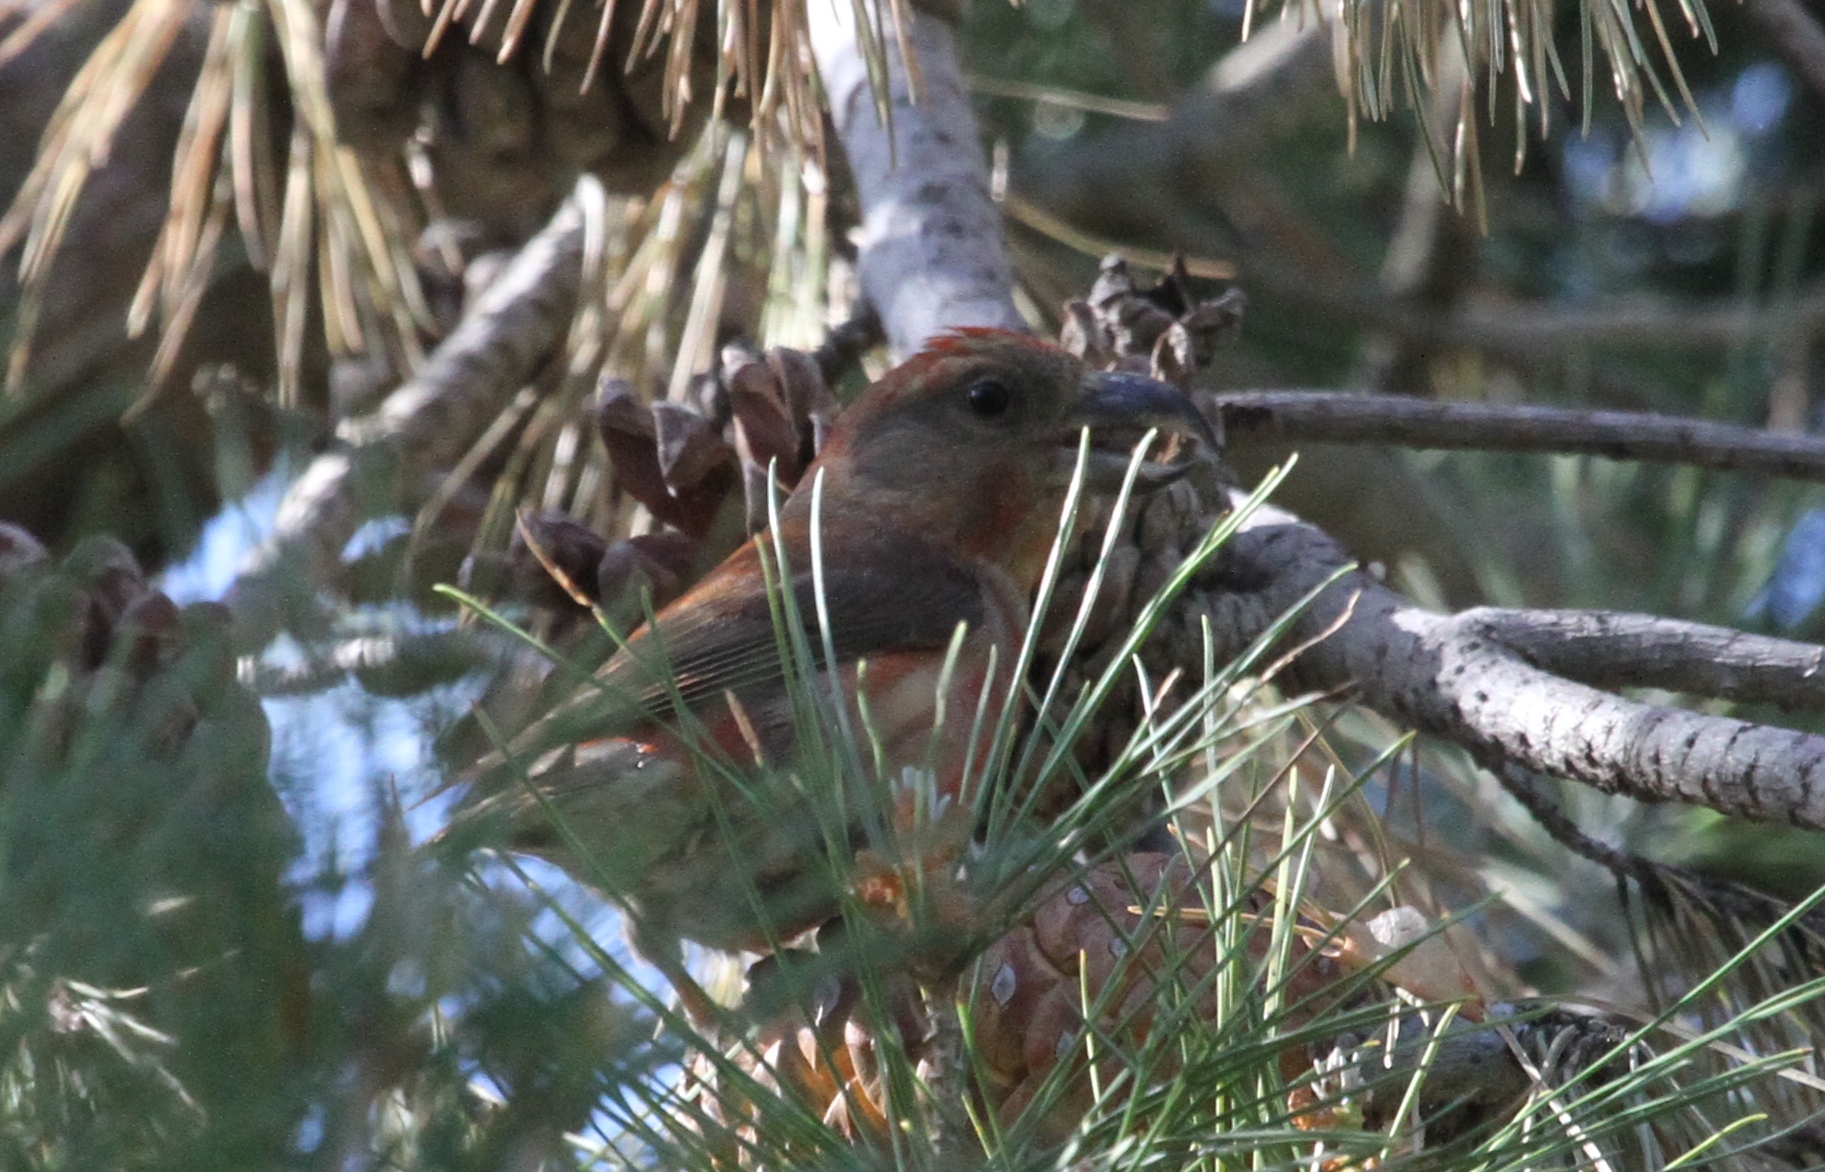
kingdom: Animalia
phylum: Chordata
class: Aves
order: Passeriformes
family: Fringillidae
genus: Loxia
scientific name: Loxia curvirostra
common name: Red crossbill
